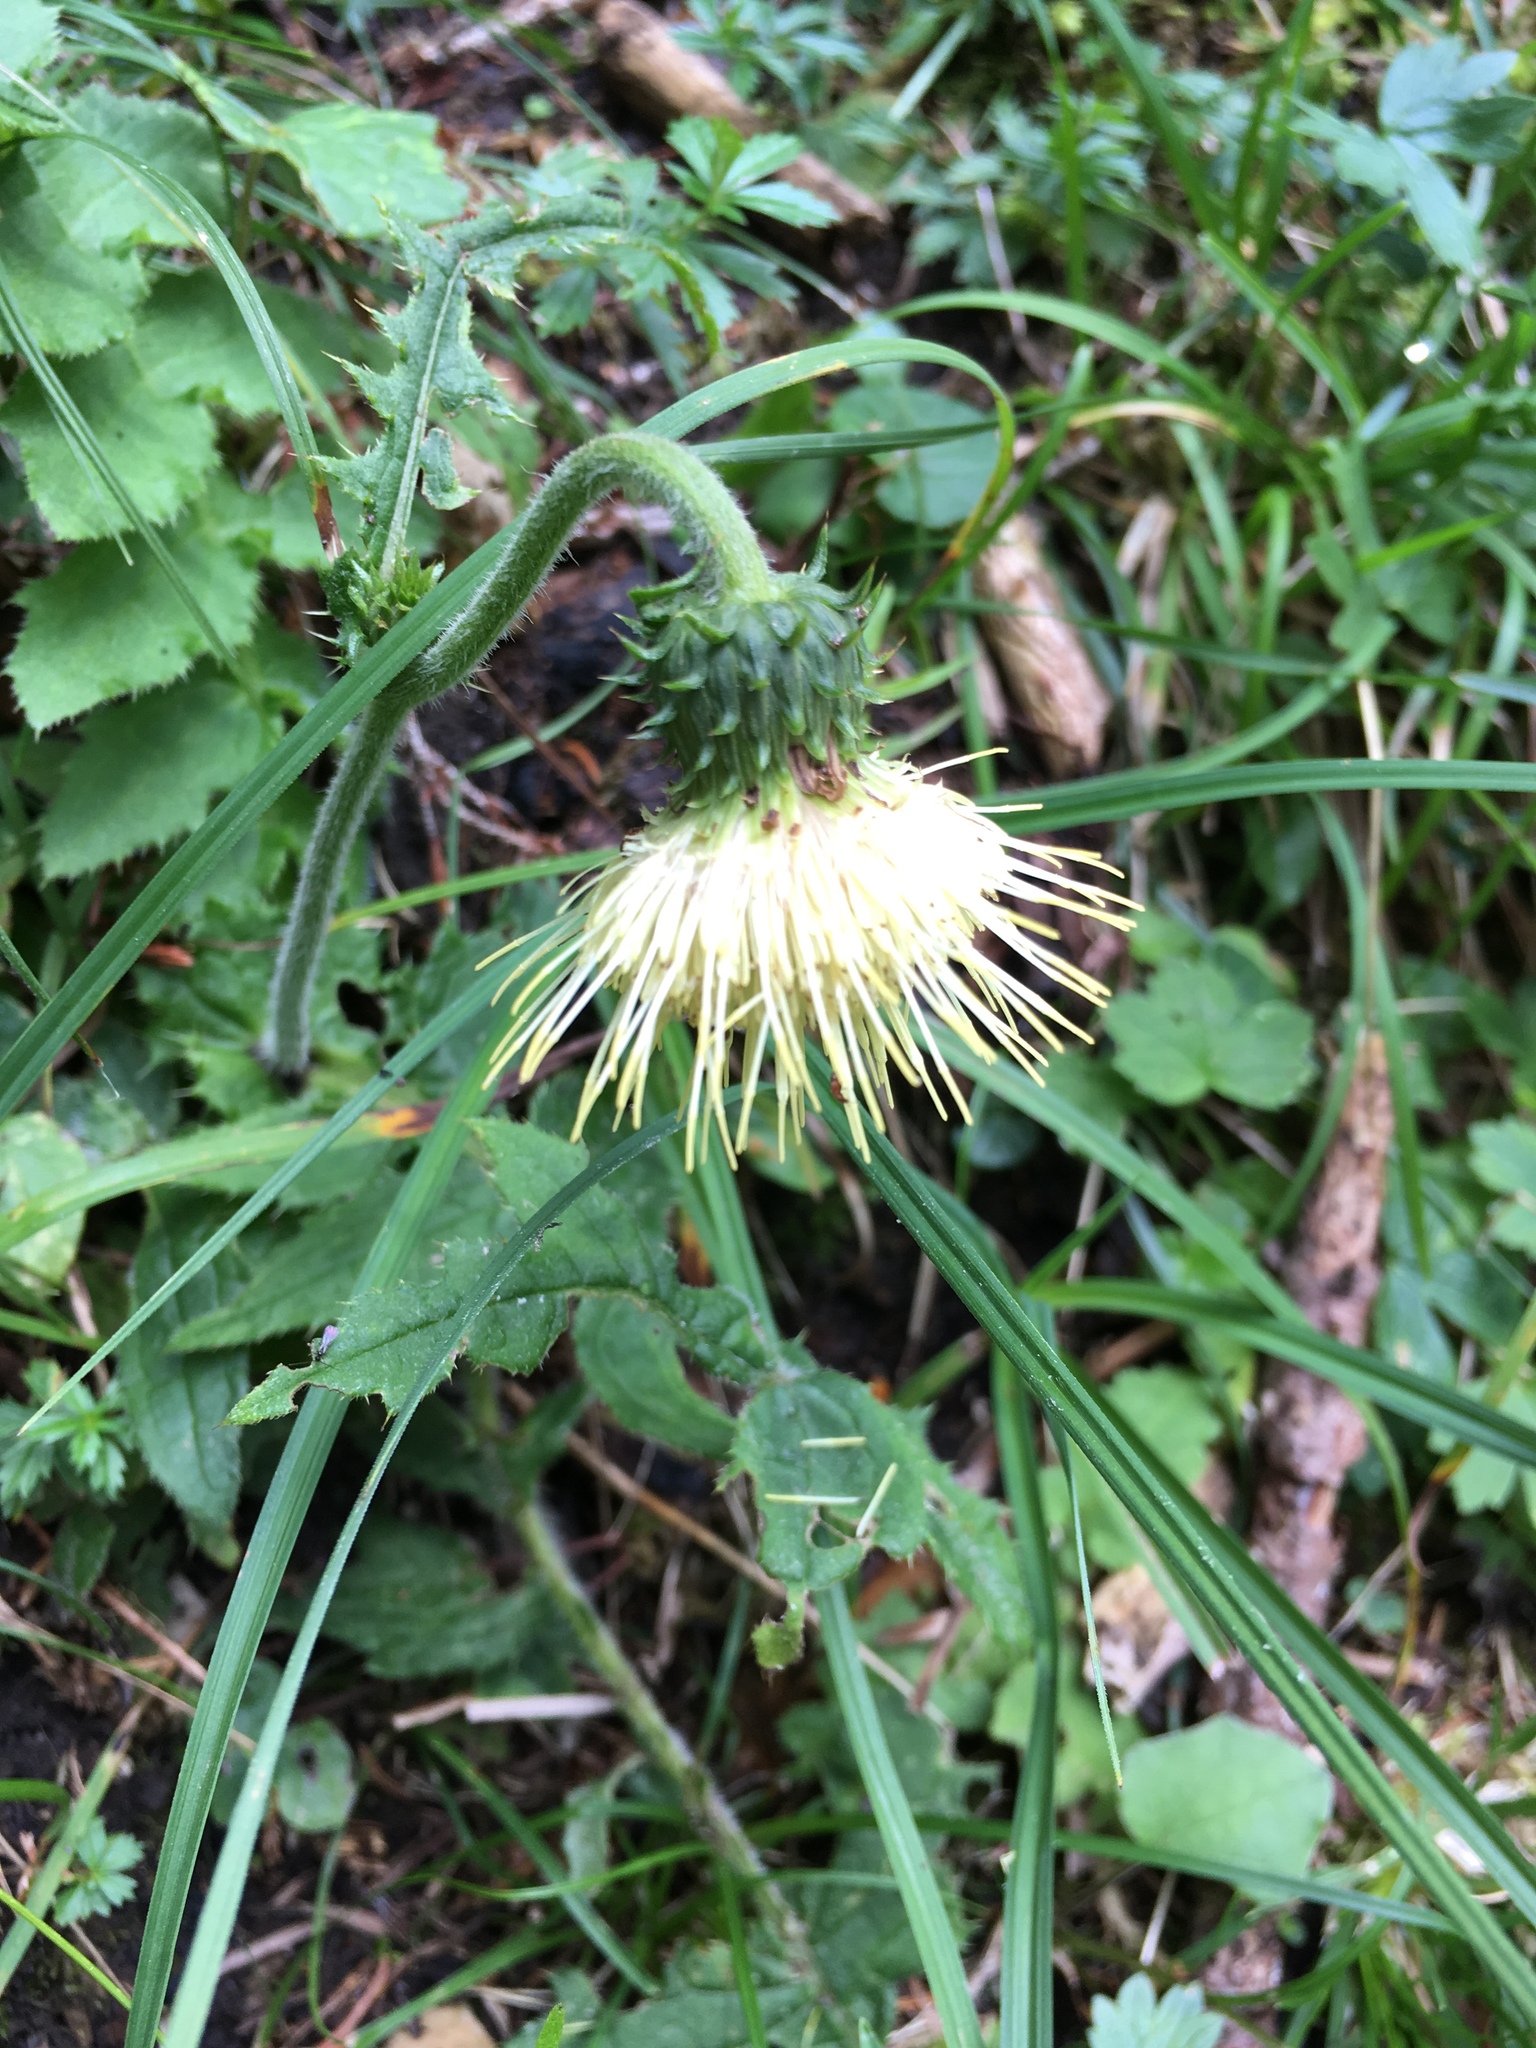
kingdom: Plantae
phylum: Tracheophyta
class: Magnoliopsida
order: Asterales
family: Asteraceae
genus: Cirsium
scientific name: Cirsium erisithales
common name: Yellow thistle
